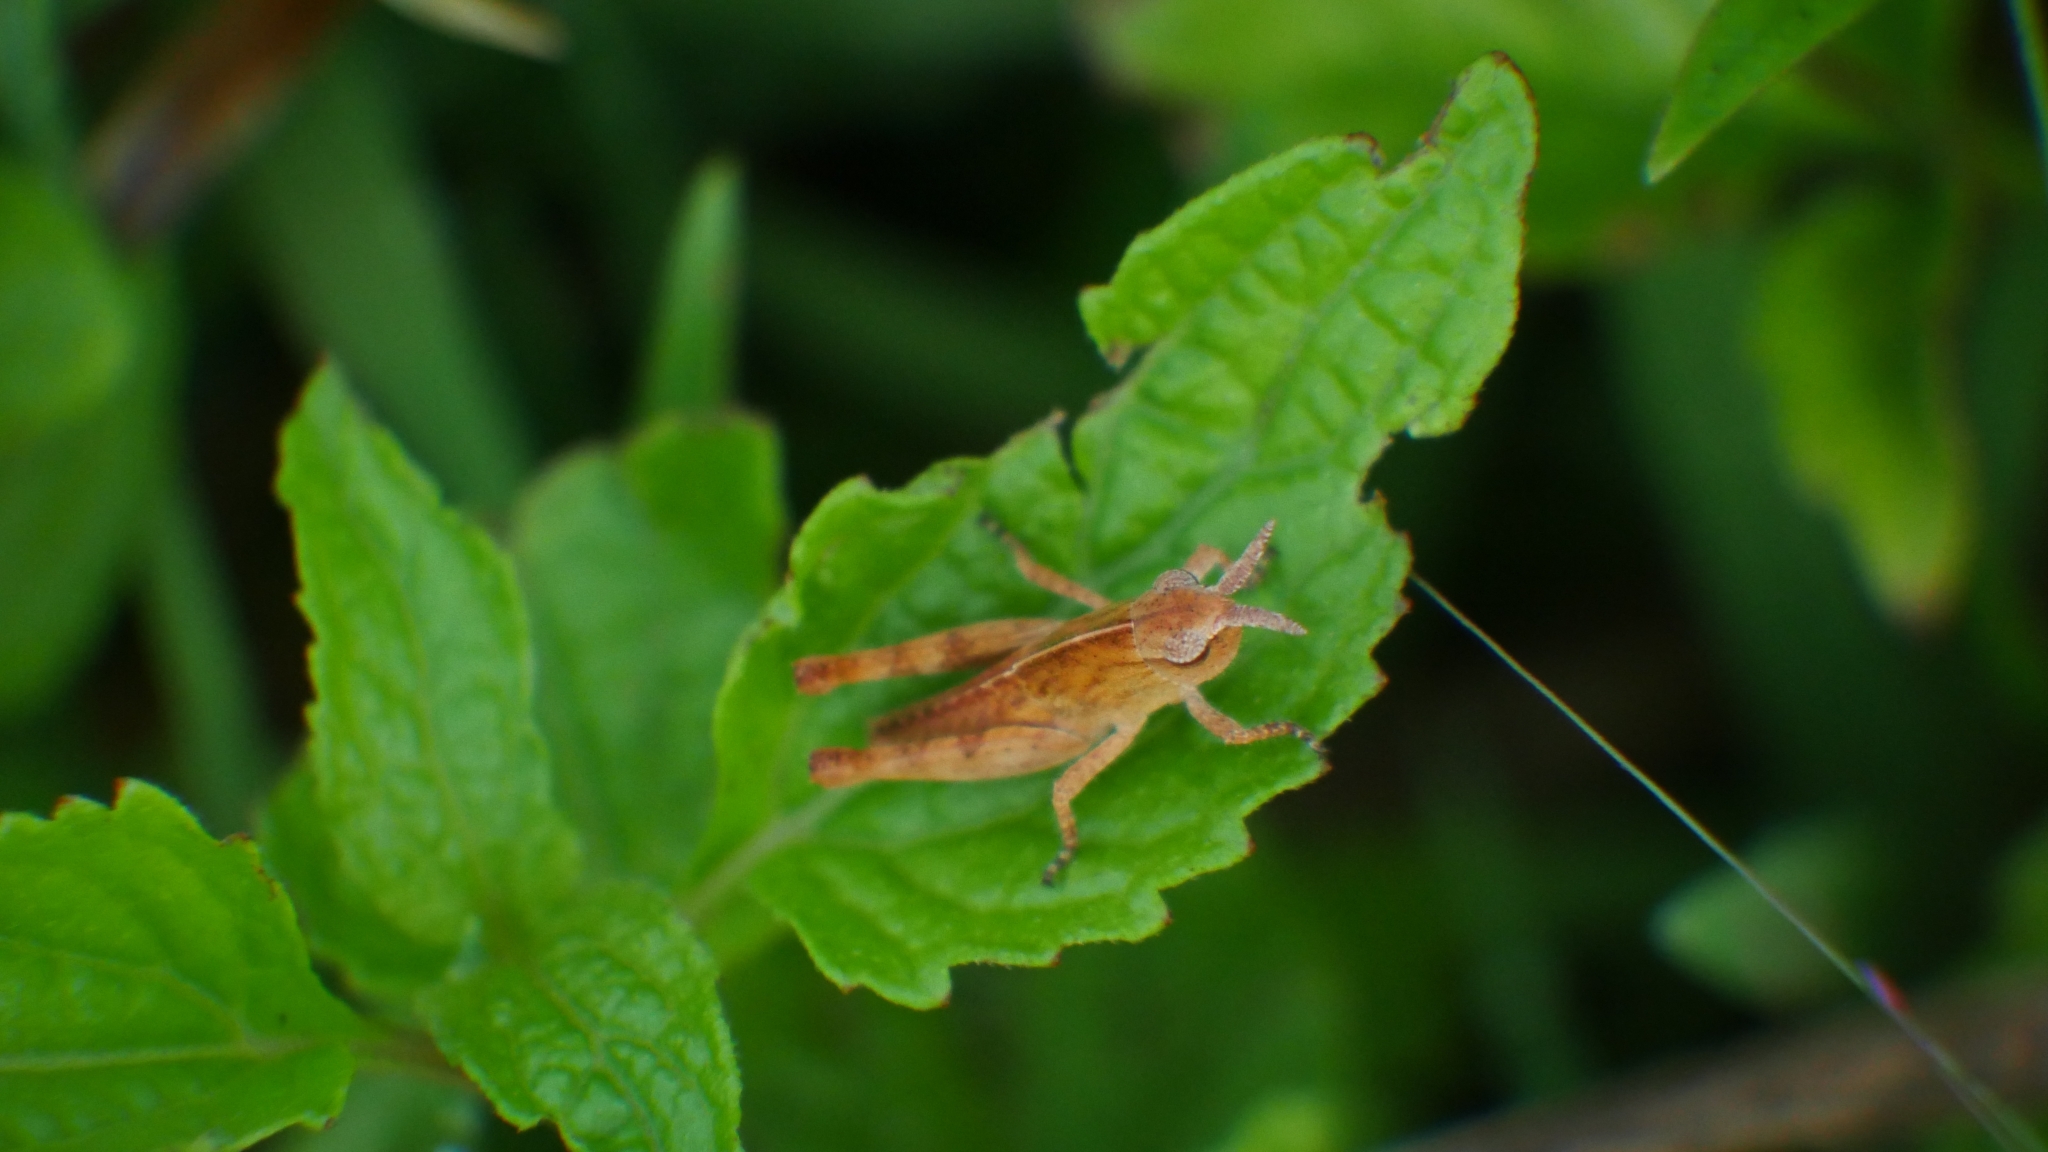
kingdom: Animalia
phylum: Arthropoda
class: Insecta
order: Orthoptera
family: Acrididae
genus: Chortophaga
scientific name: Chortophaga viridifasciata
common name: Green-striped grasshopper
